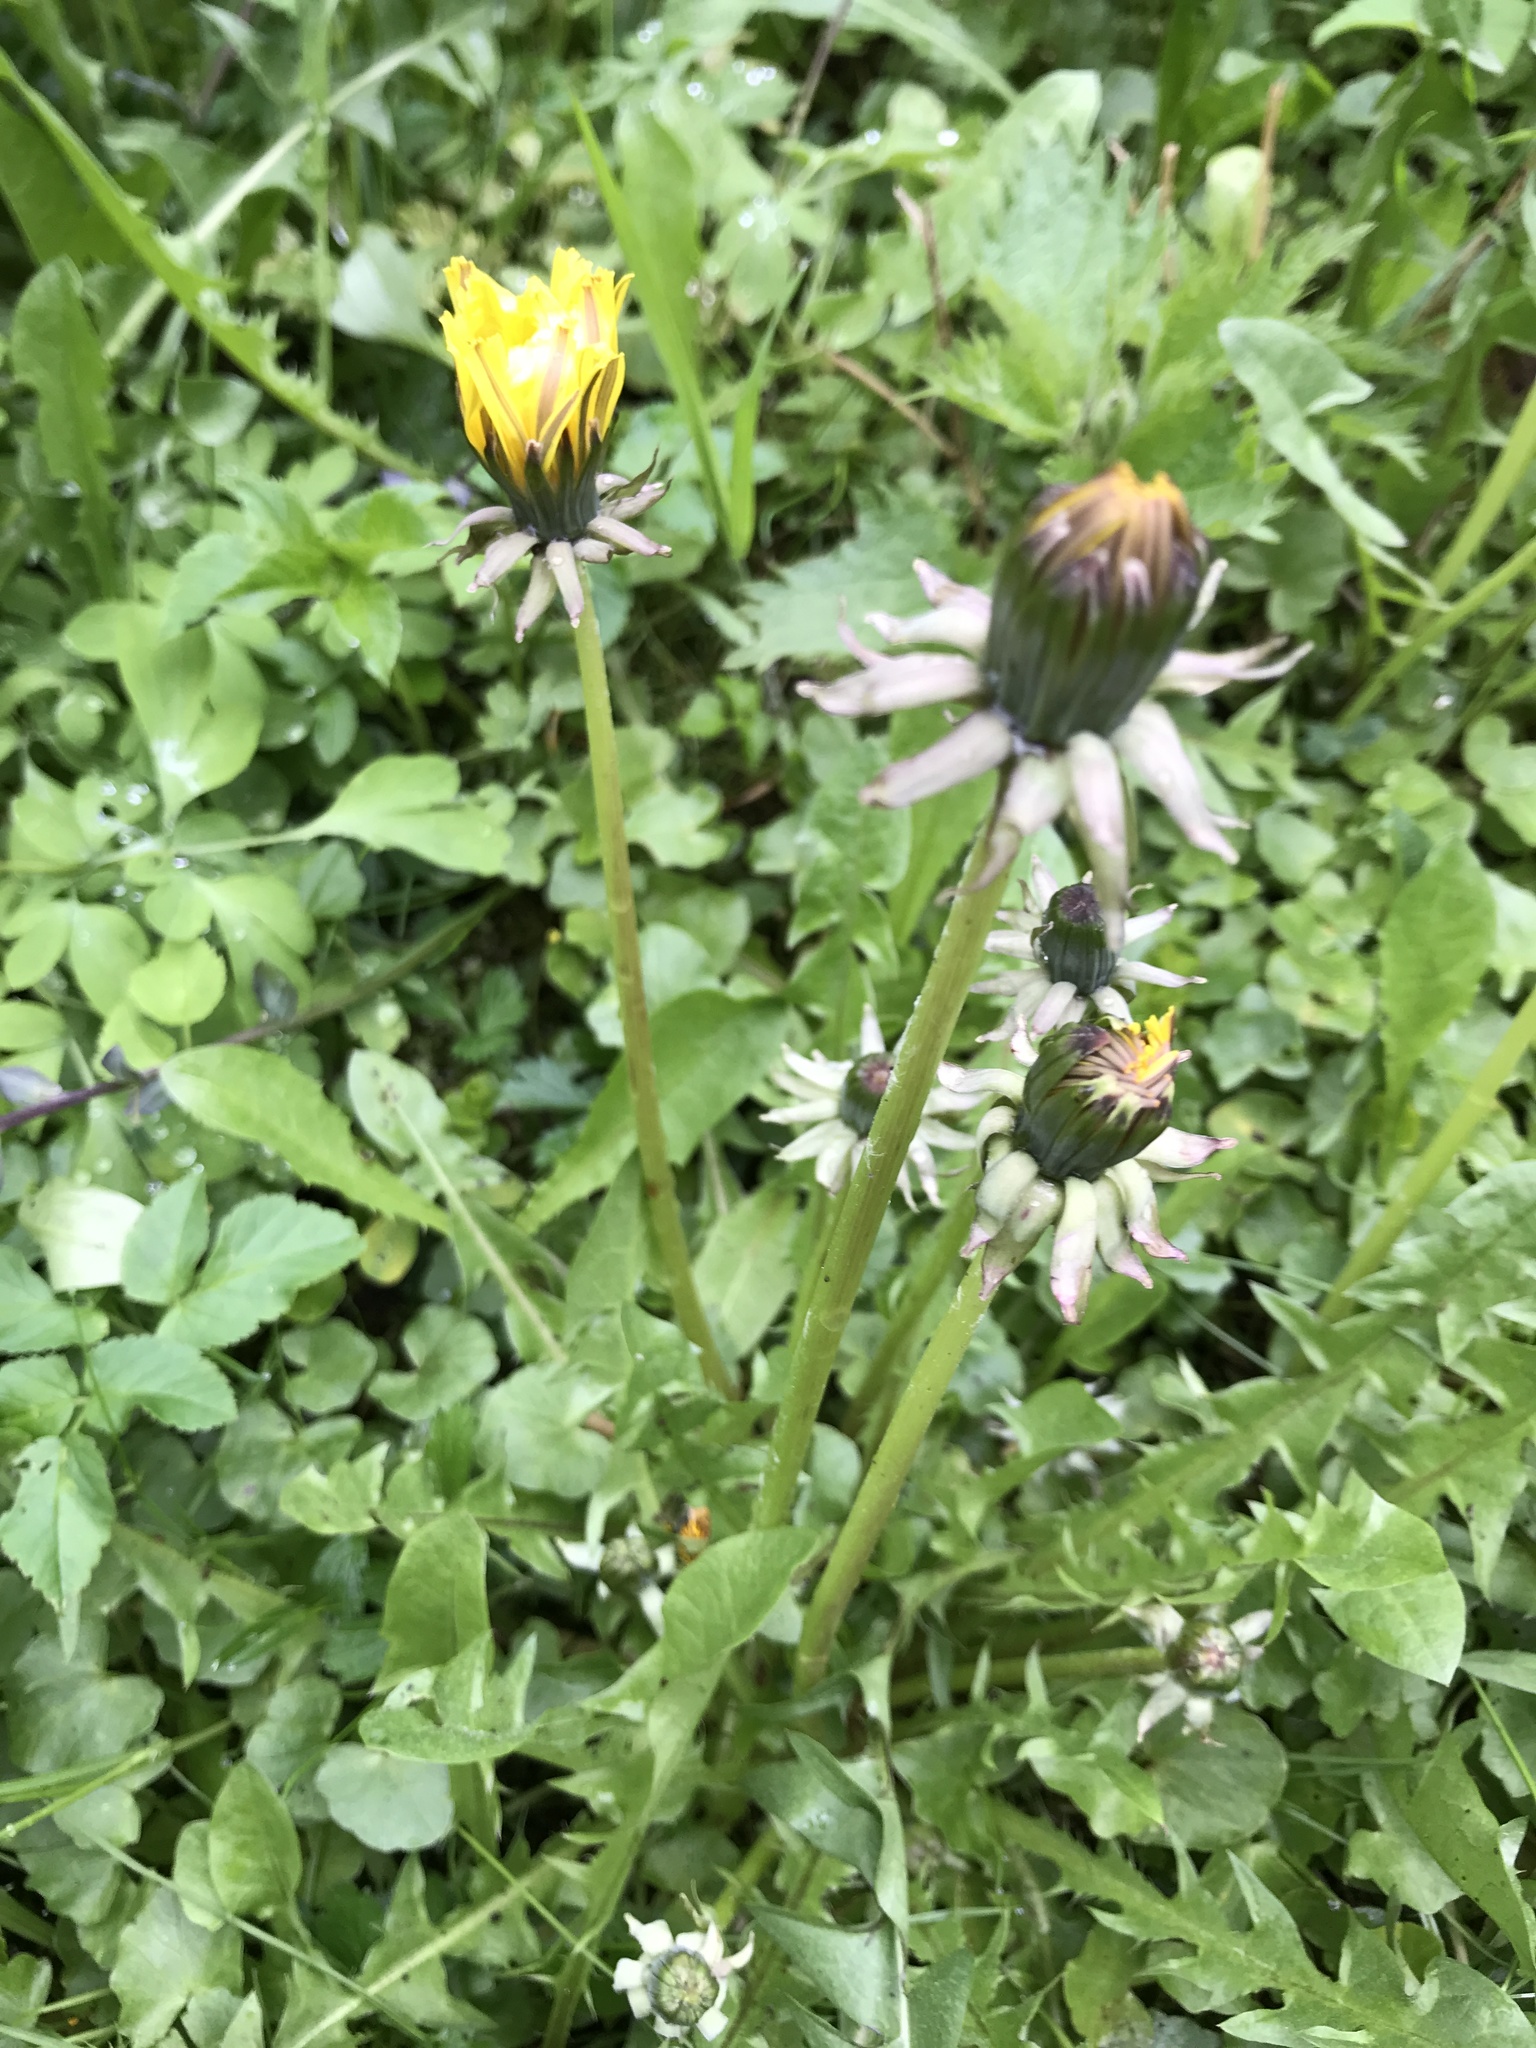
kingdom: Plantae
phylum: Tracheophyta
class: Magnoliopsida
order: Asterales
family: Asteraceae
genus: Taraxacum
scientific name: Taraxacum officinale
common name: Common dandelion
